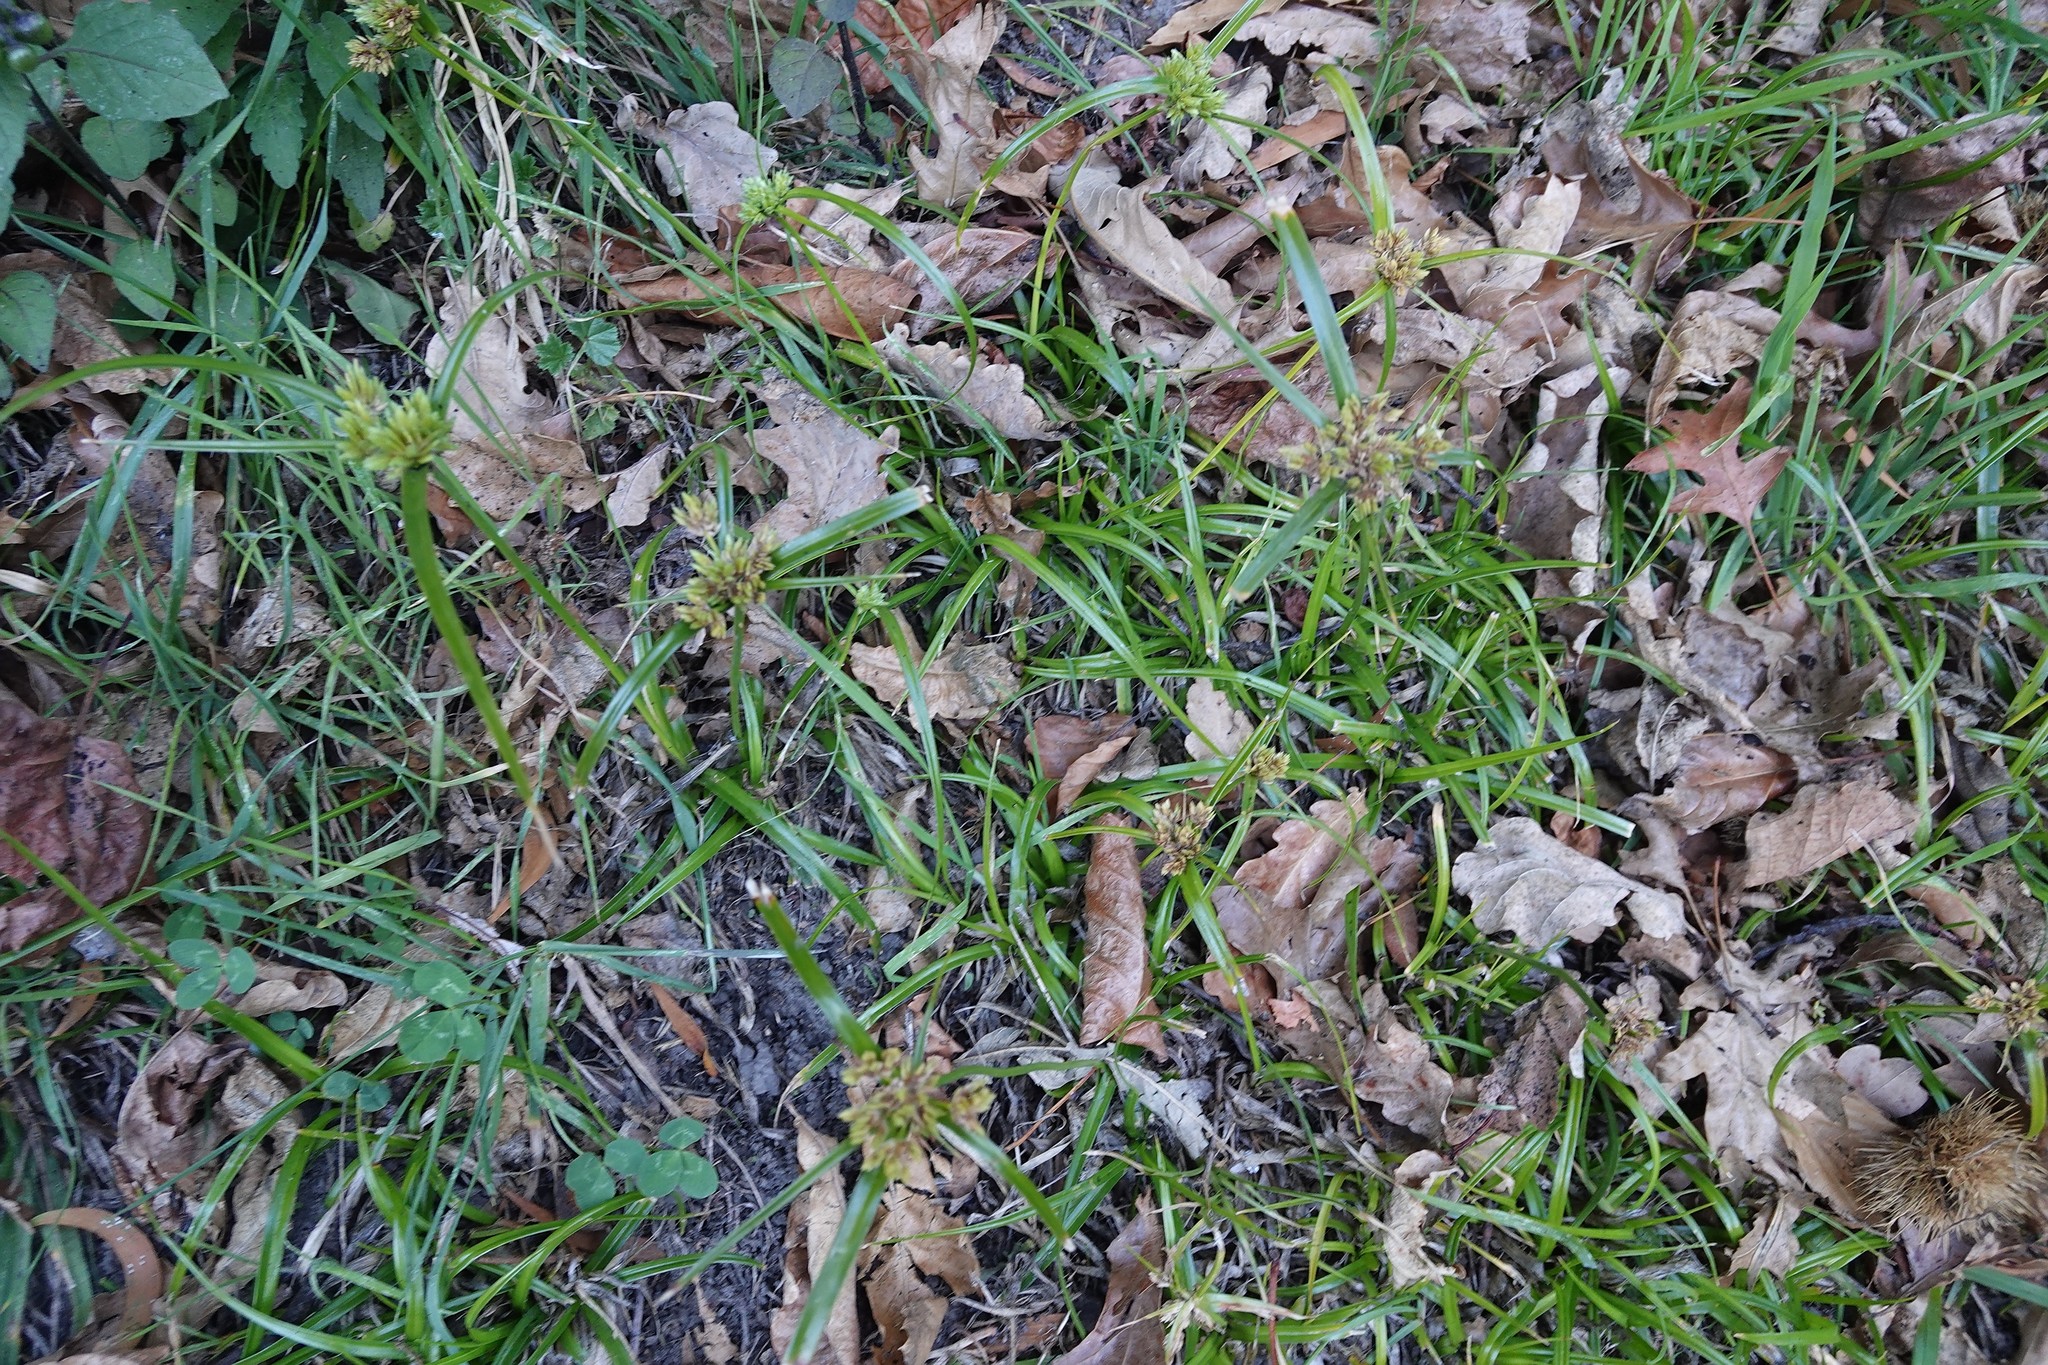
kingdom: Plantae
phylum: Tracheophyta
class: Liliopsida
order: Poales
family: Cyperaceae
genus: Cyperus
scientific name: Cyperus eragrostis
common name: Tall flatsedge
